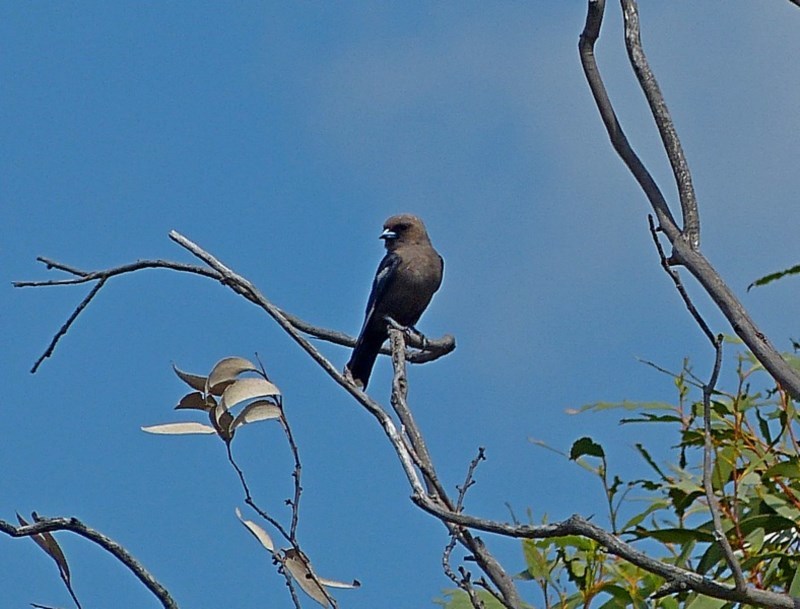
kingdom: Animalia
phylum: Chordata
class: Aves
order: Passeriformes
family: Artamidae
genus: Artamus
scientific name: Artamus cyanopterus
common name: Dusky woodswallow
